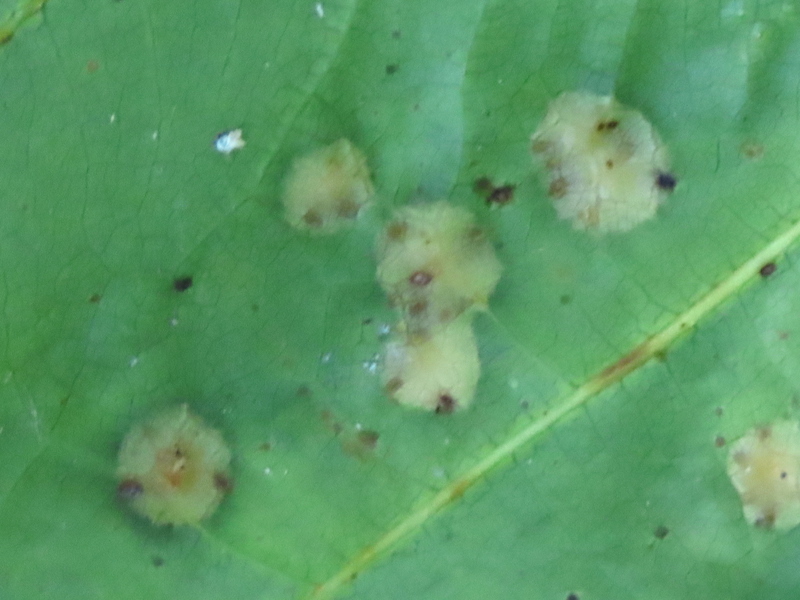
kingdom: Animalia
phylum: Arthropoda
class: Insecta
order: Diptera
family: Cecidomyiidae
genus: Polystepha
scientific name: Polystepha pilulae
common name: Oak leaf gall midge
